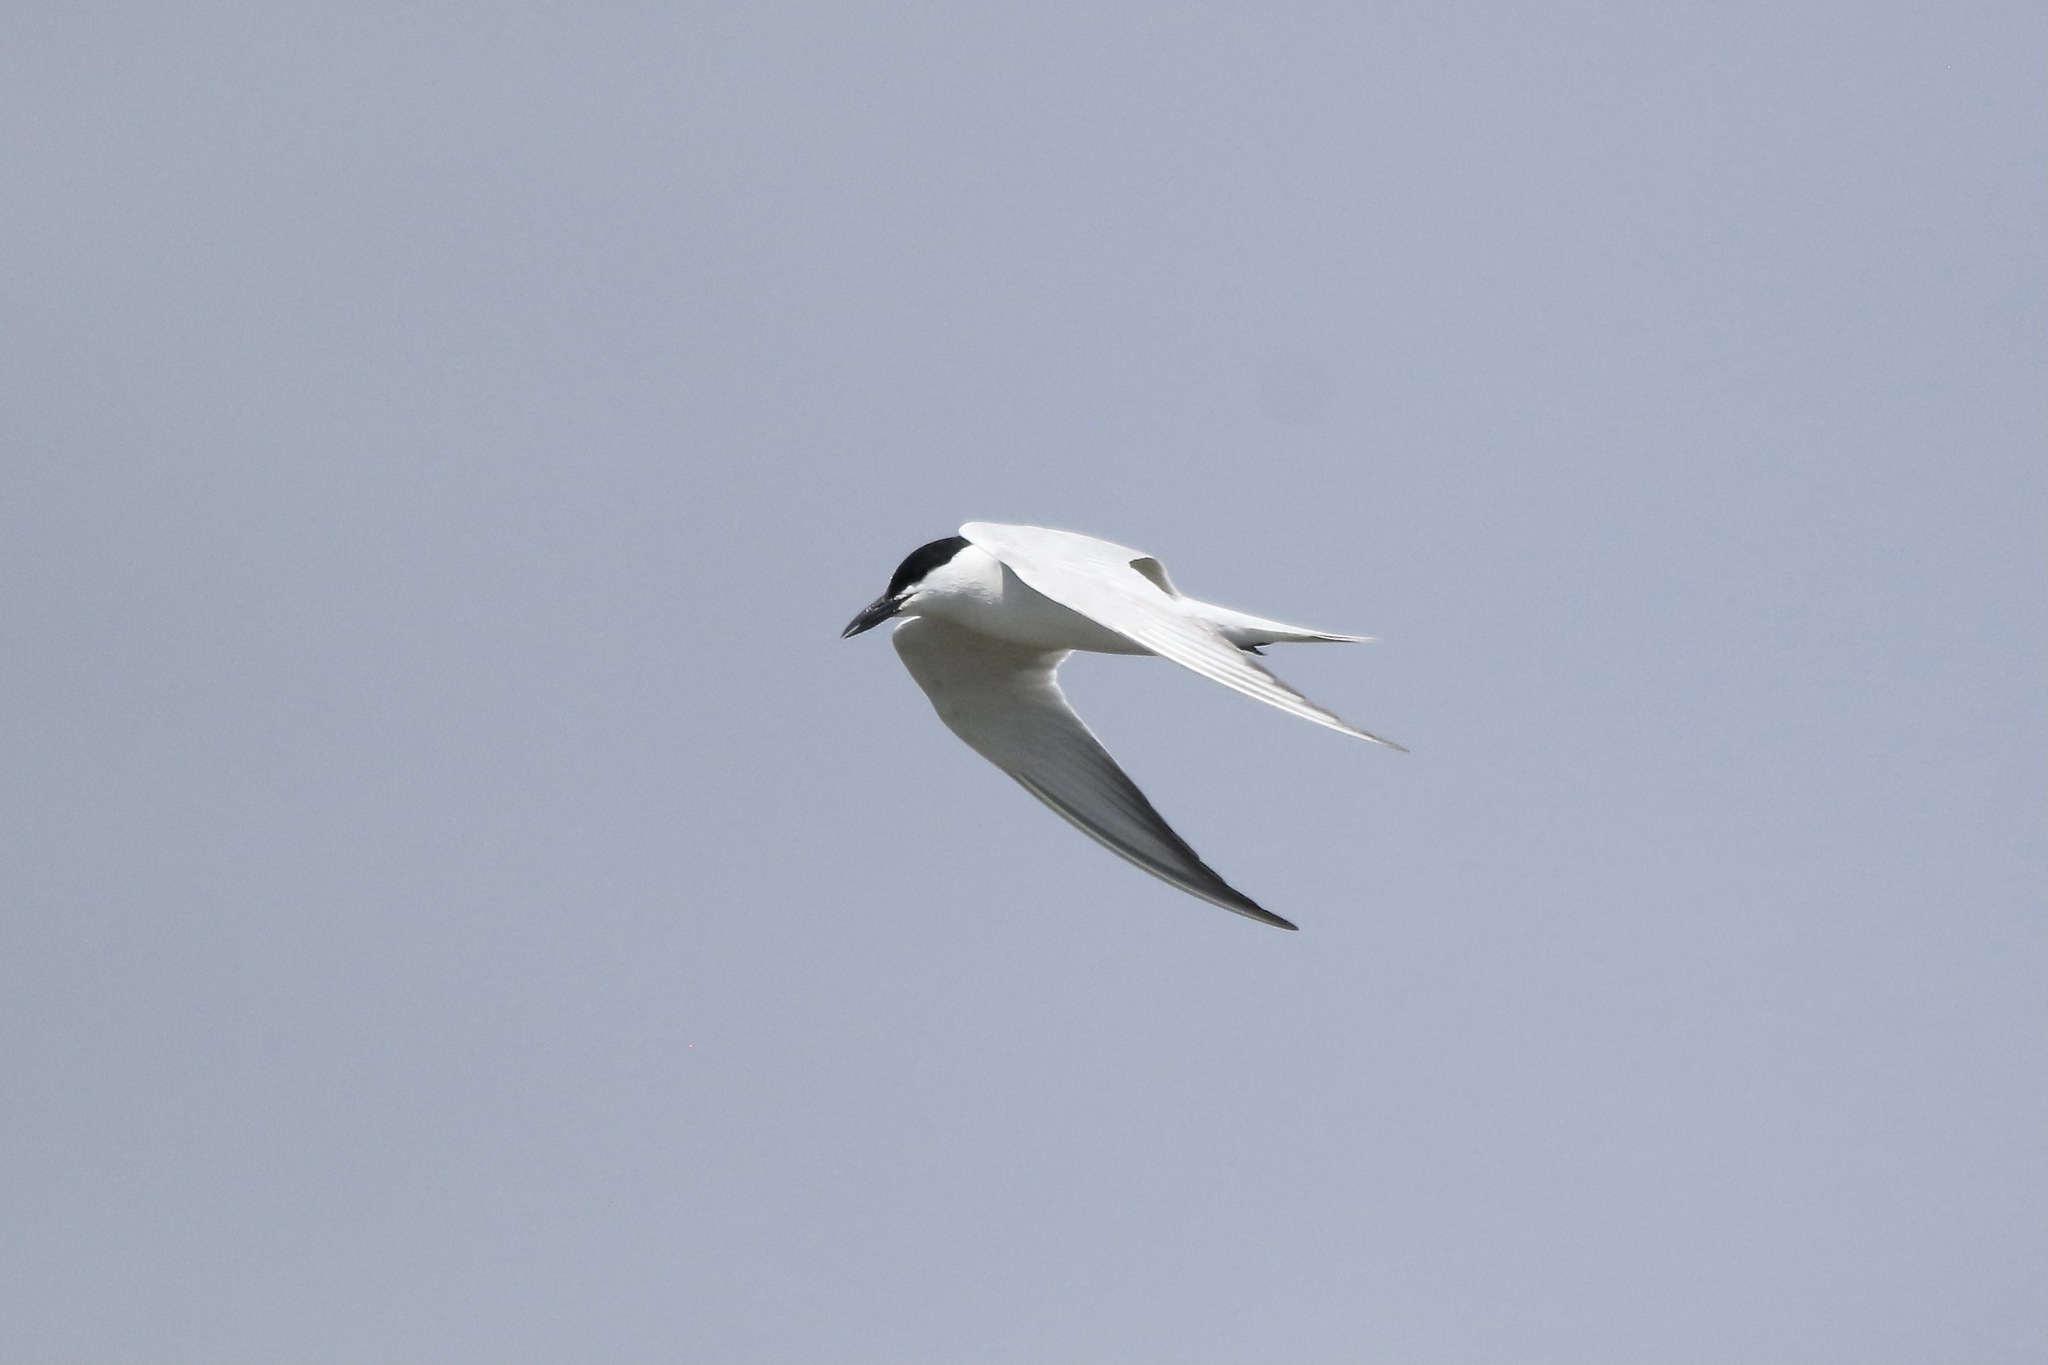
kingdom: Animalia
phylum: Chordata
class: Aves
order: Charadriiformes
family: Laridae
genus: Gelochelidon
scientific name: Gelochelidon nilotica
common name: Gull-billed tern
